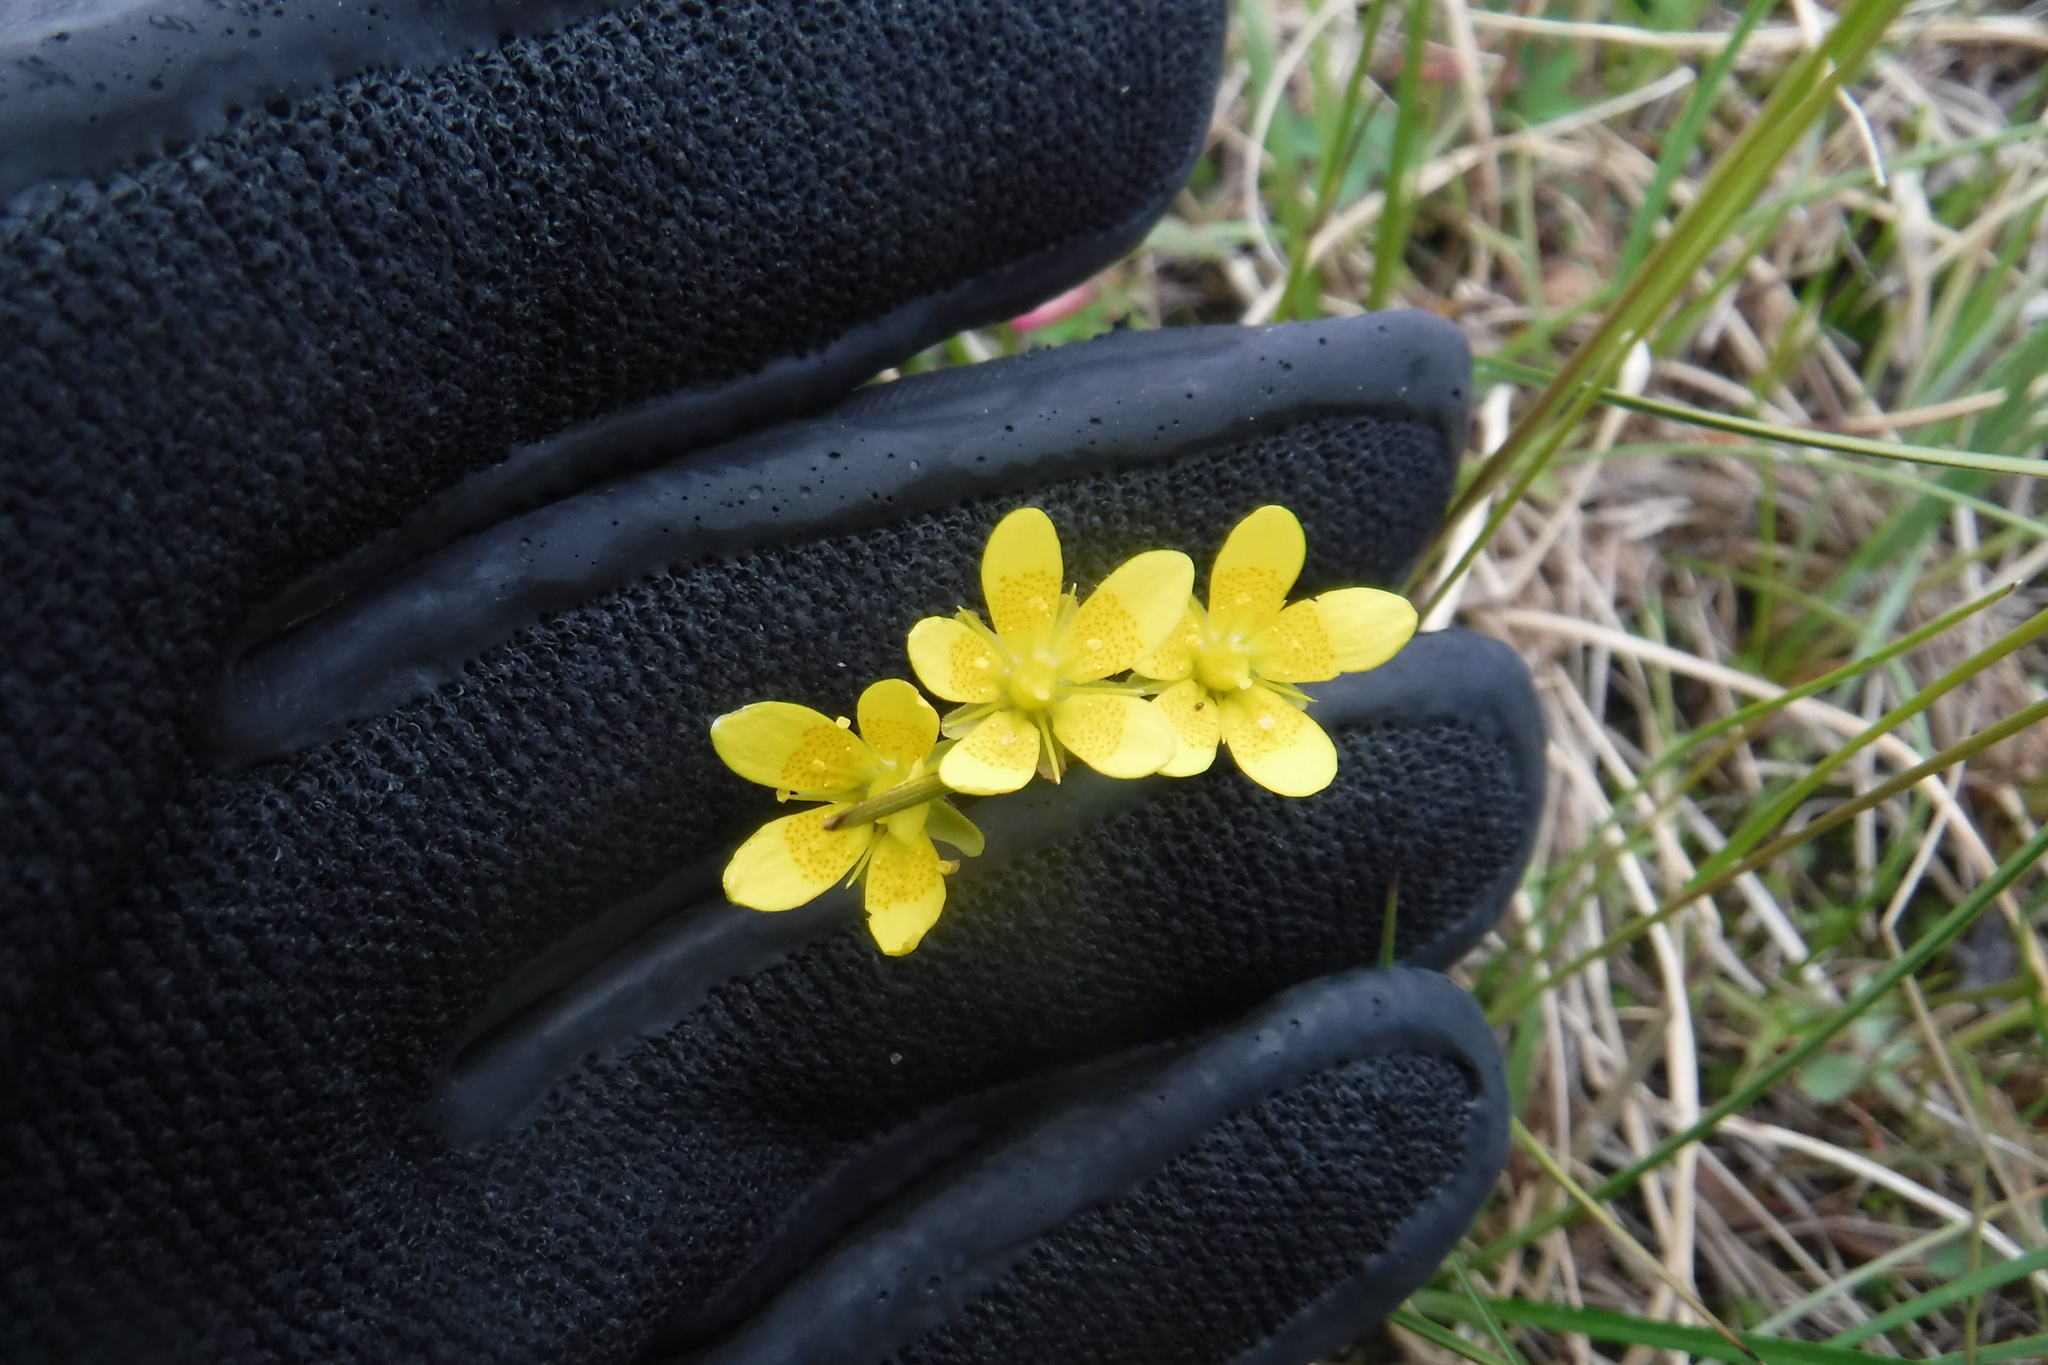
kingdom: Plantae
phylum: Tracheophyta
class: Magnoliopsida
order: Saxifragales
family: Saxifragaceae
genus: Saxifraga
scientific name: Saxifraga hirculus
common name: Yellow marsh saxifrage
